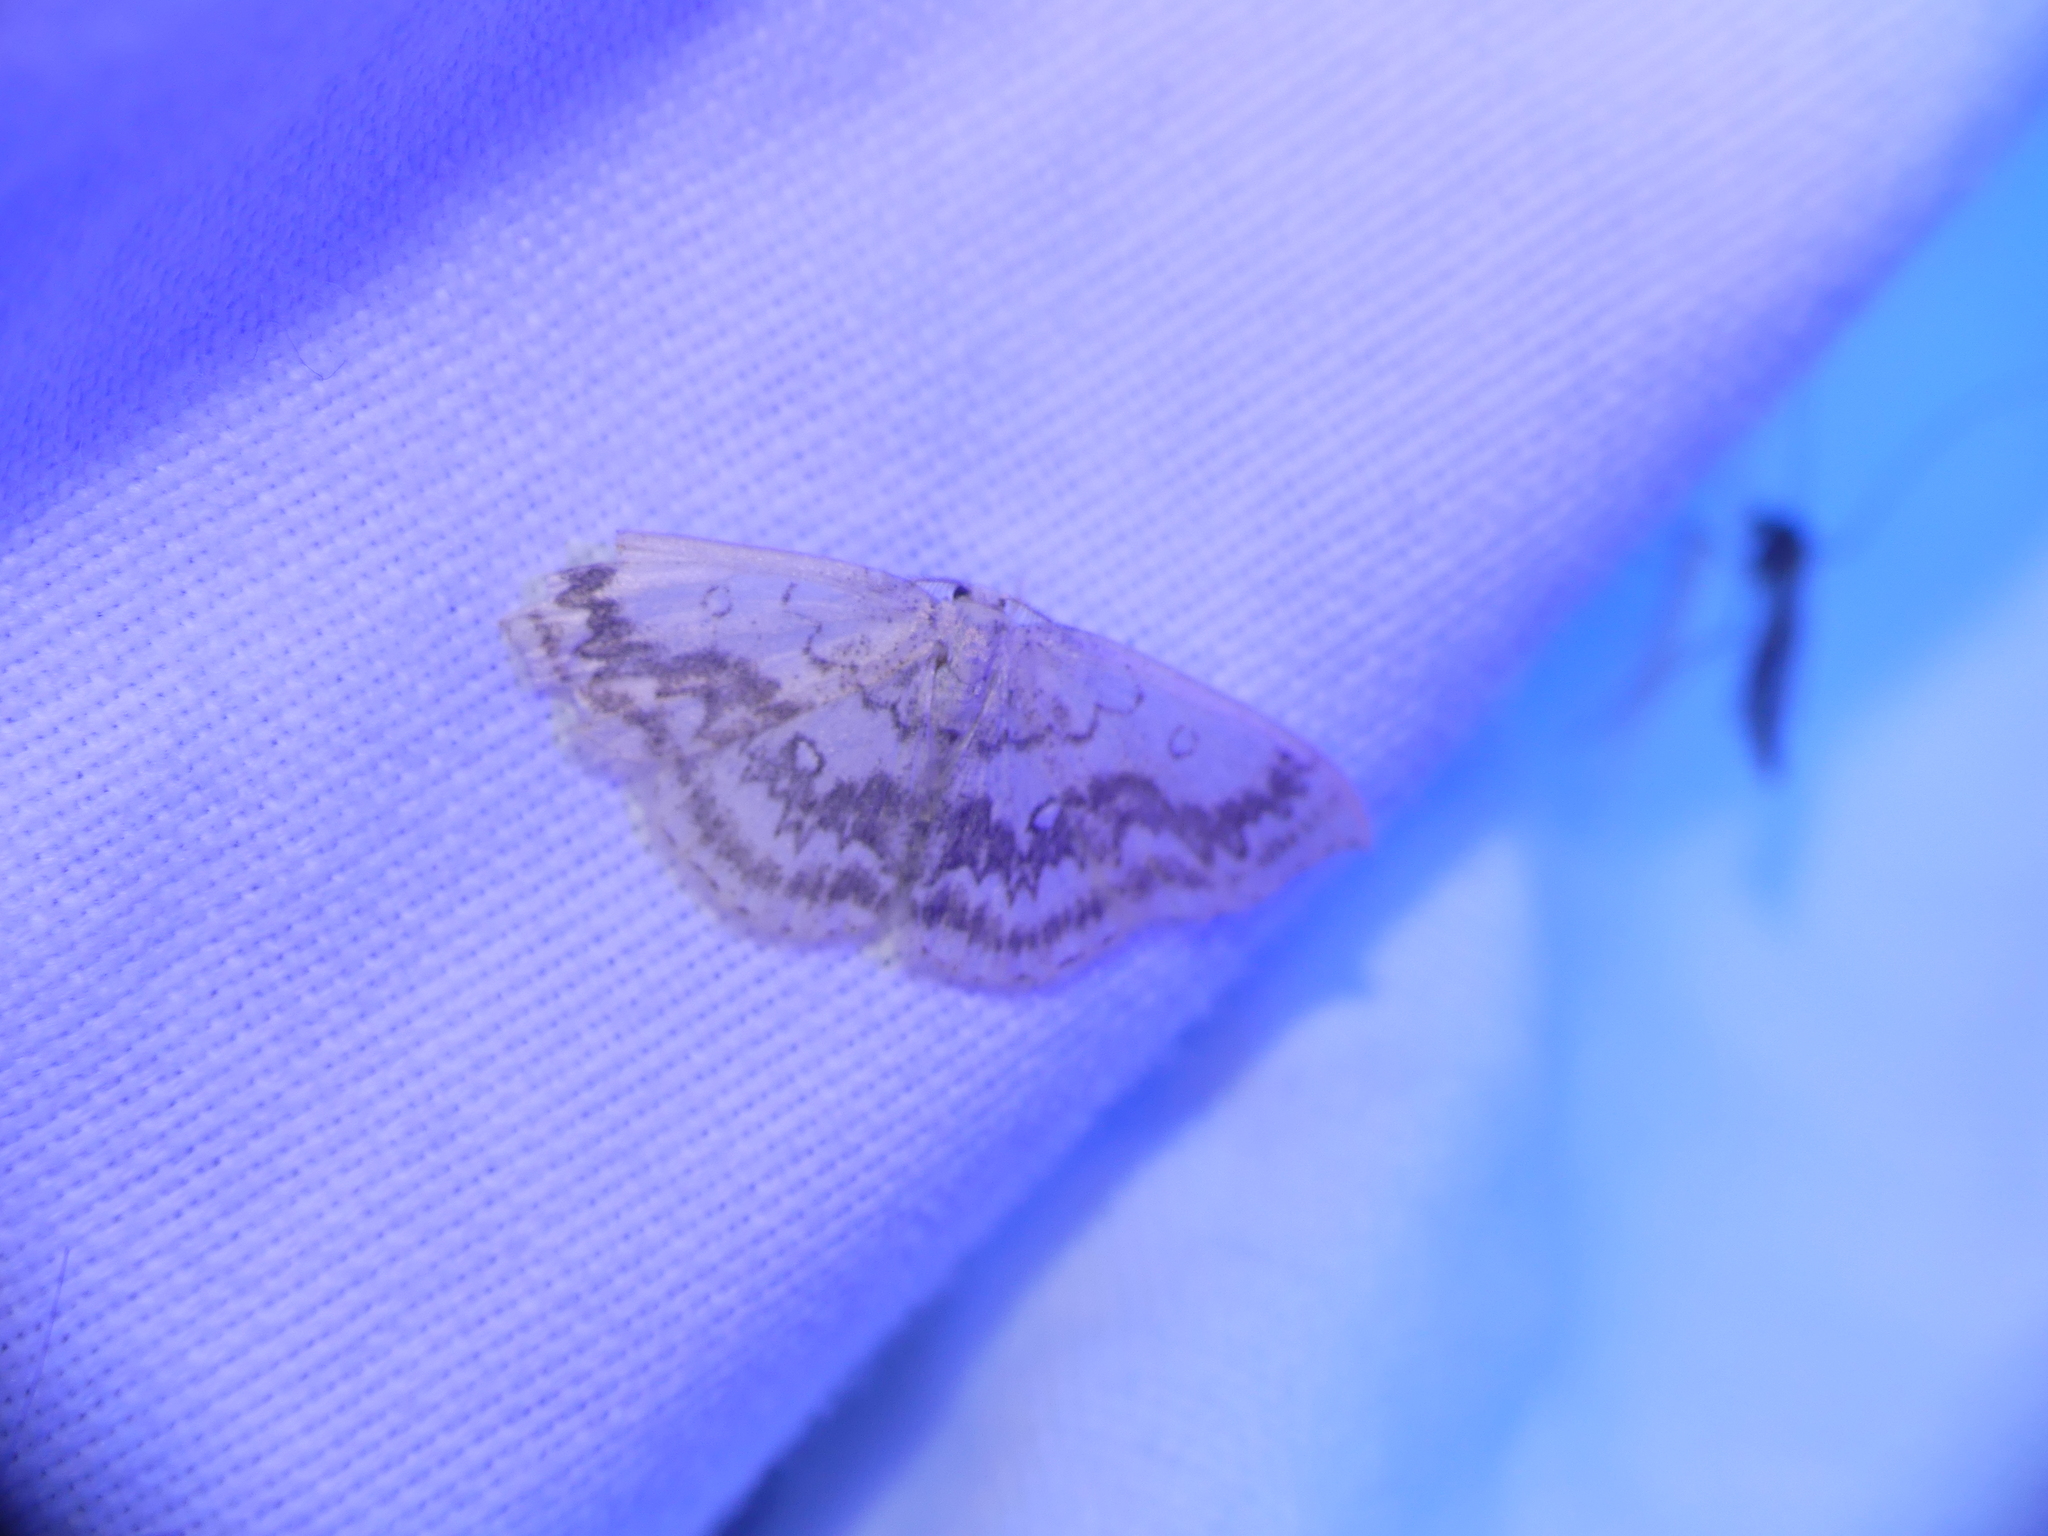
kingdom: Animalia
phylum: Arthropoda
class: Insecta
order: Lepidoptera
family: Geometridae
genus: Cyclophora
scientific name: Cyclophora annularia
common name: Mocha
